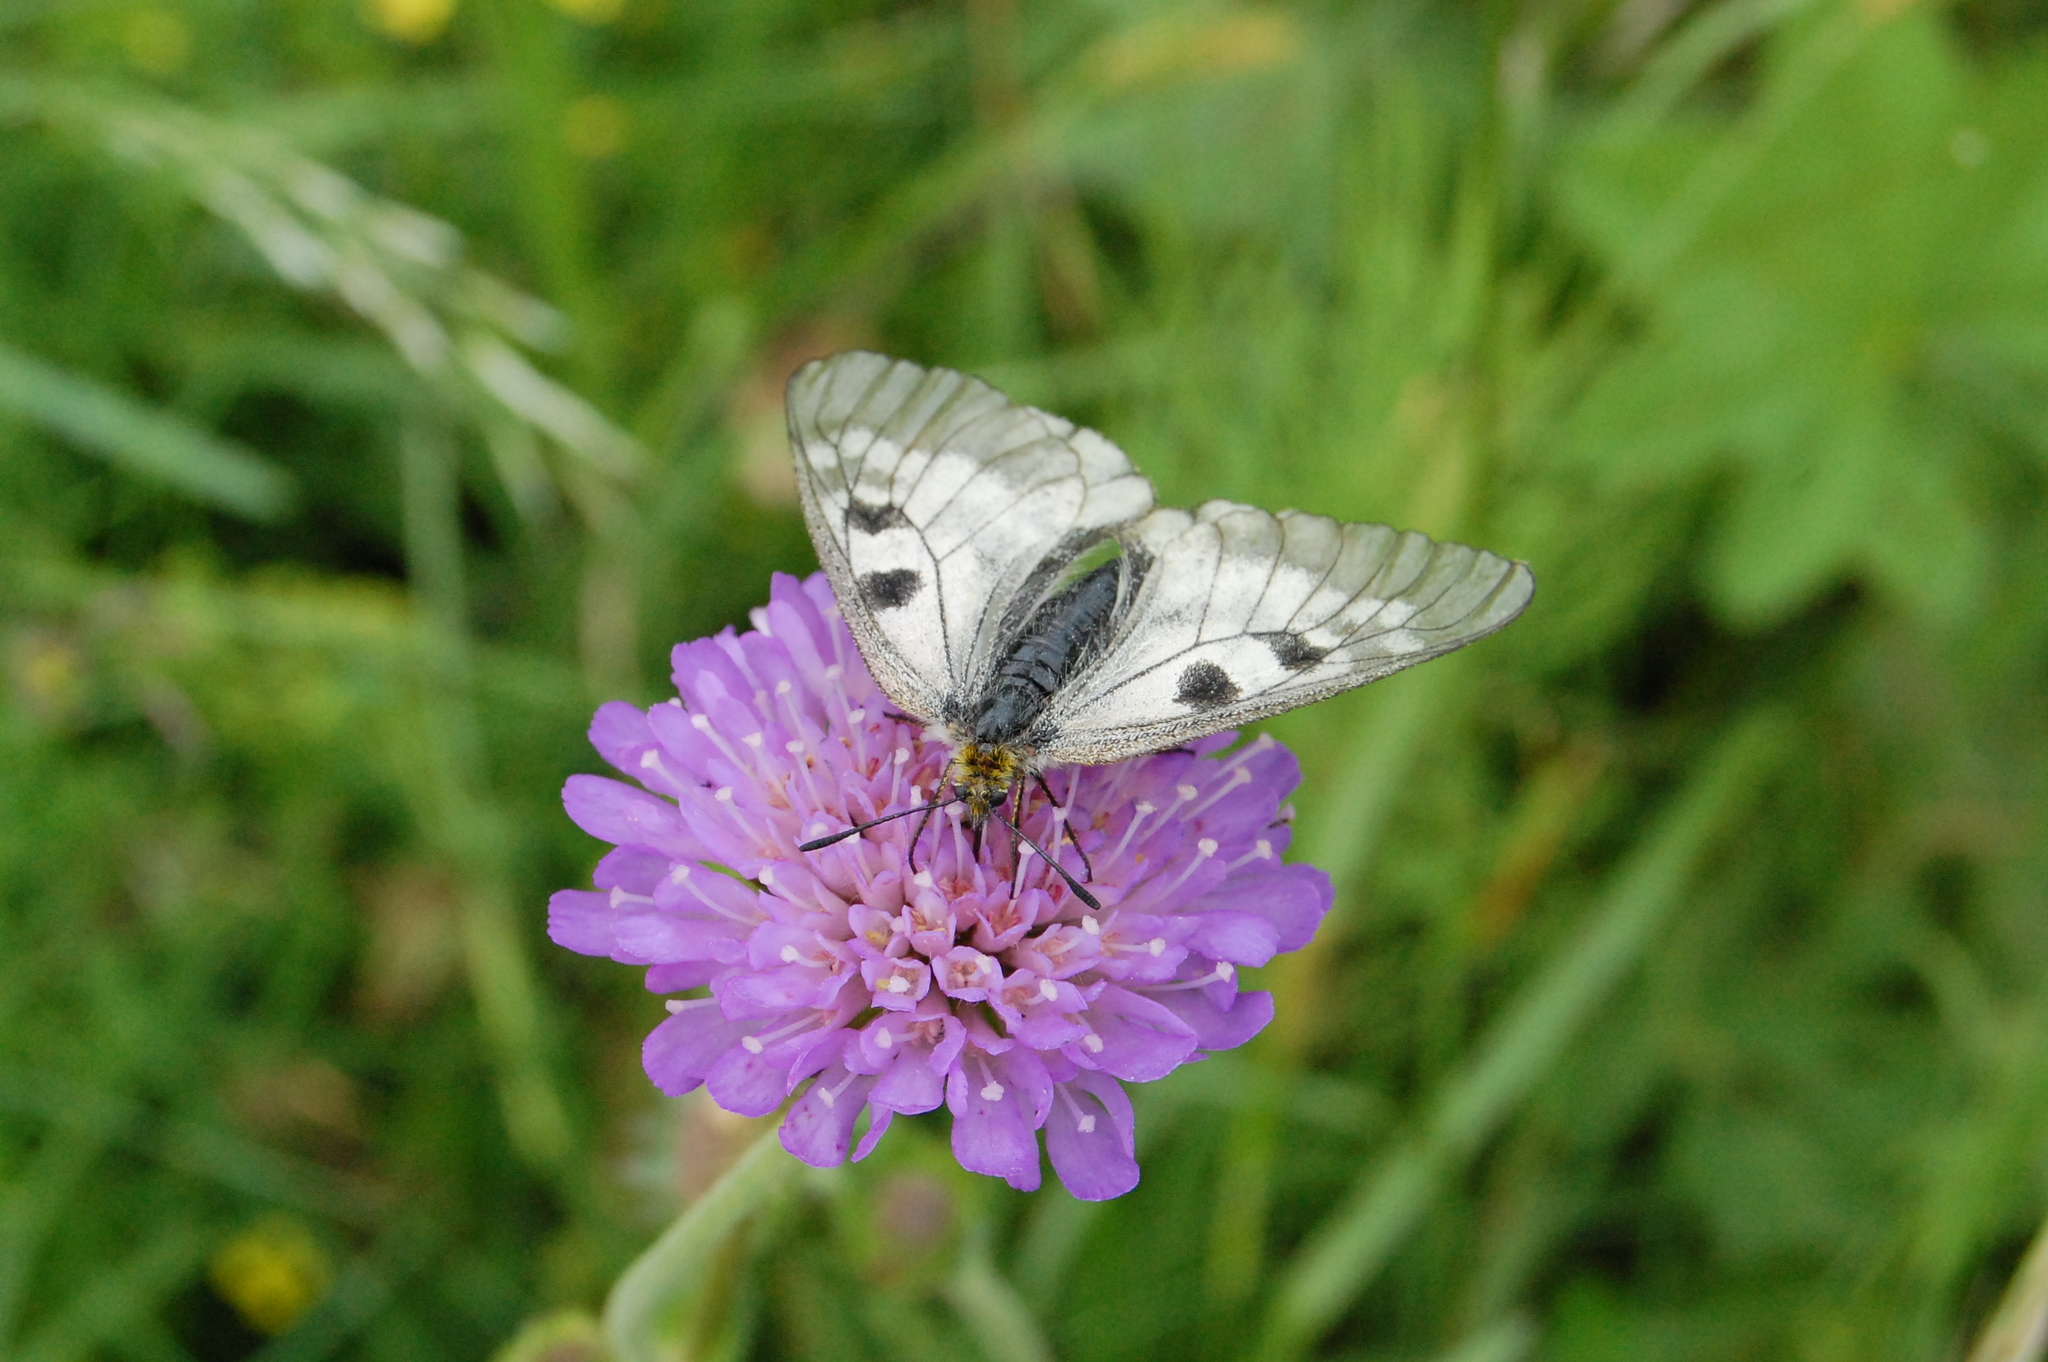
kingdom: Animalia
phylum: Arthropoda
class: Insecta
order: Lepidoptera
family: Papilionidae
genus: Parnassius
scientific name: Parnassius mnemosyne
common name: Clouded apollo
